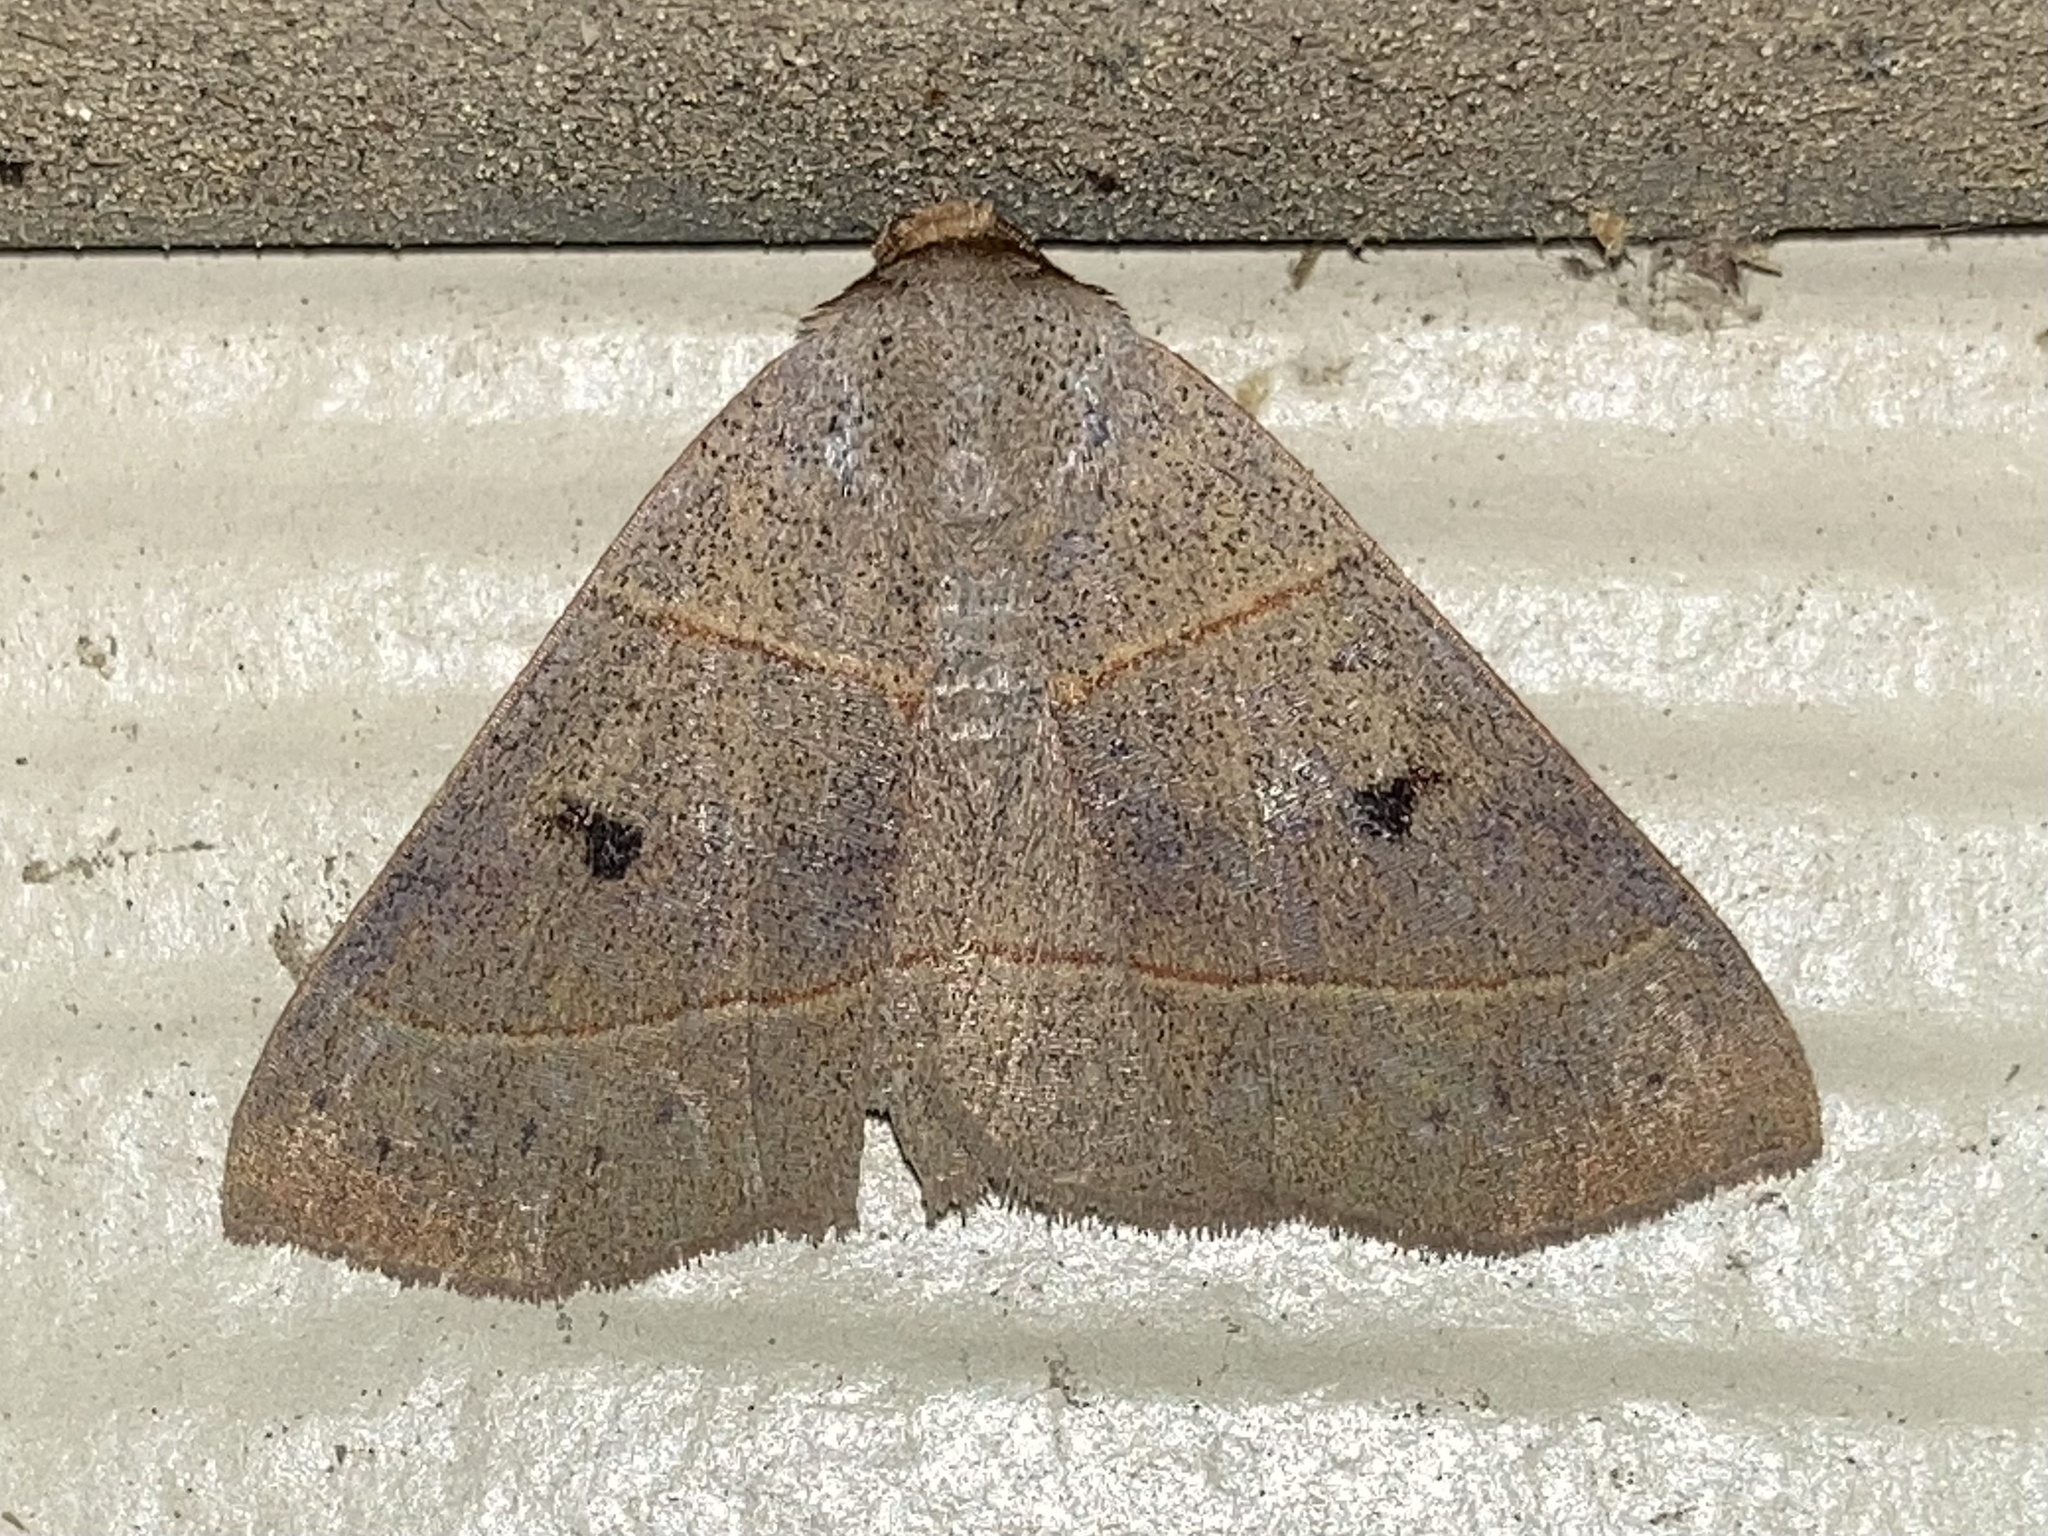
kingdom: Animalia
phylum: Arthropoda
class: Insecta
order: Lepidoptera
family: Erebidae
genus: Panopoda
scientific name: Panopoda rufimargo
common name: Red-lined panopoda moth
